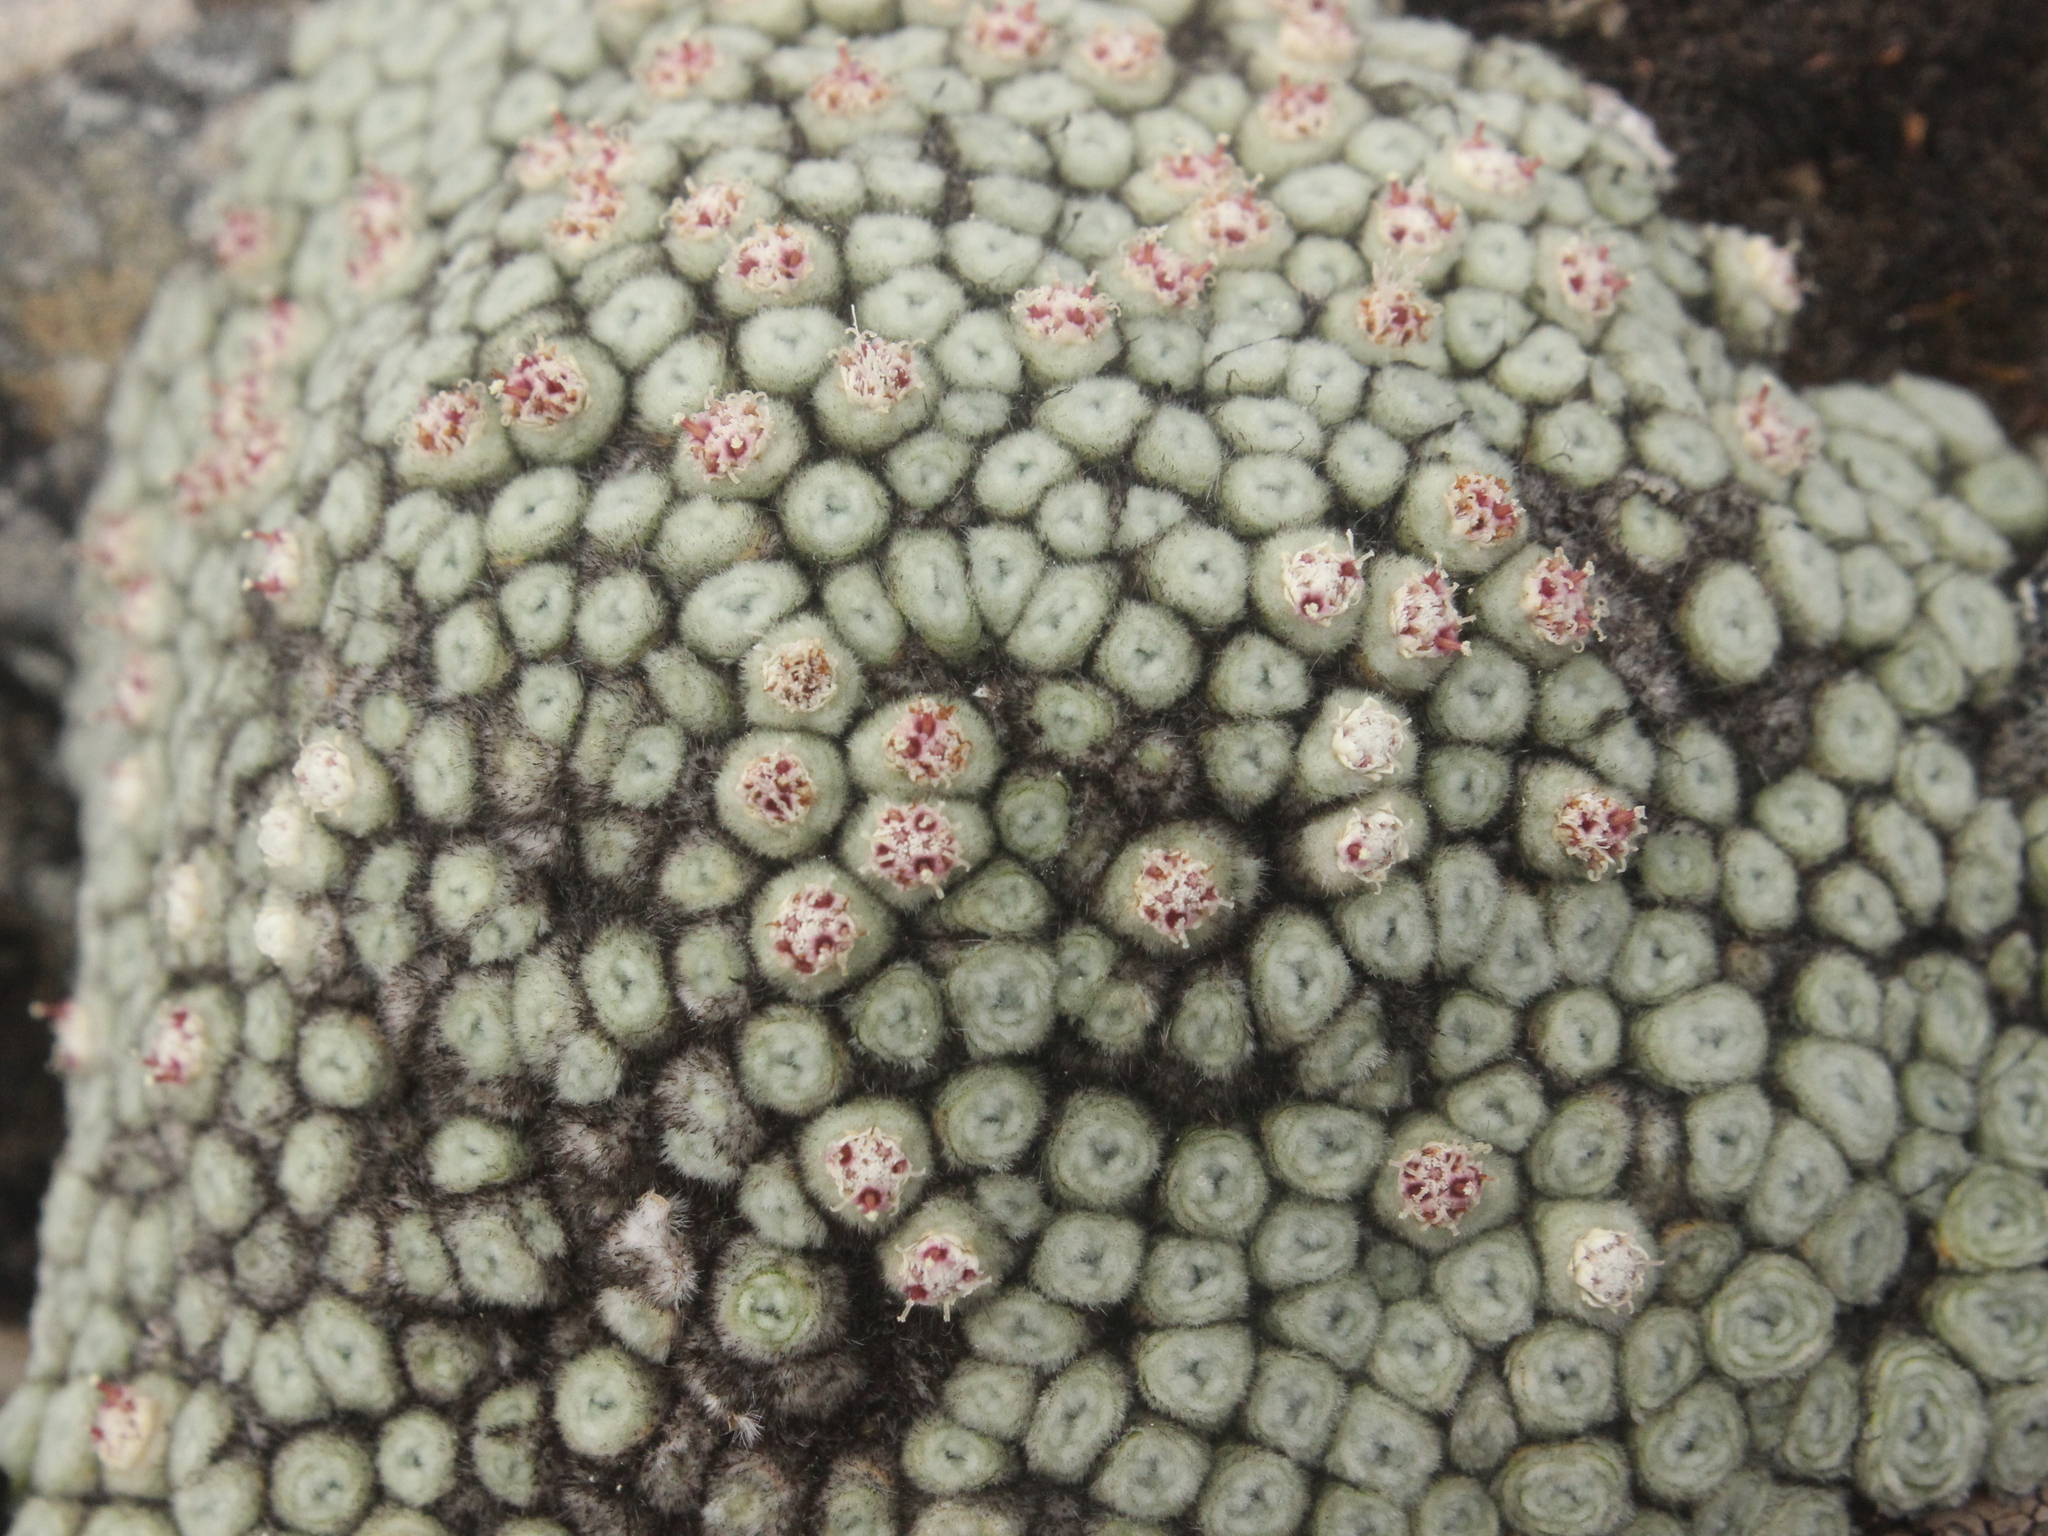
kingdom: Plantae
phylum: Tracheophyta
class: Magnoliopsida
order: Asterales
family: Asteraceae
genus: Raoulia
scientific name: Raoulia rubra
